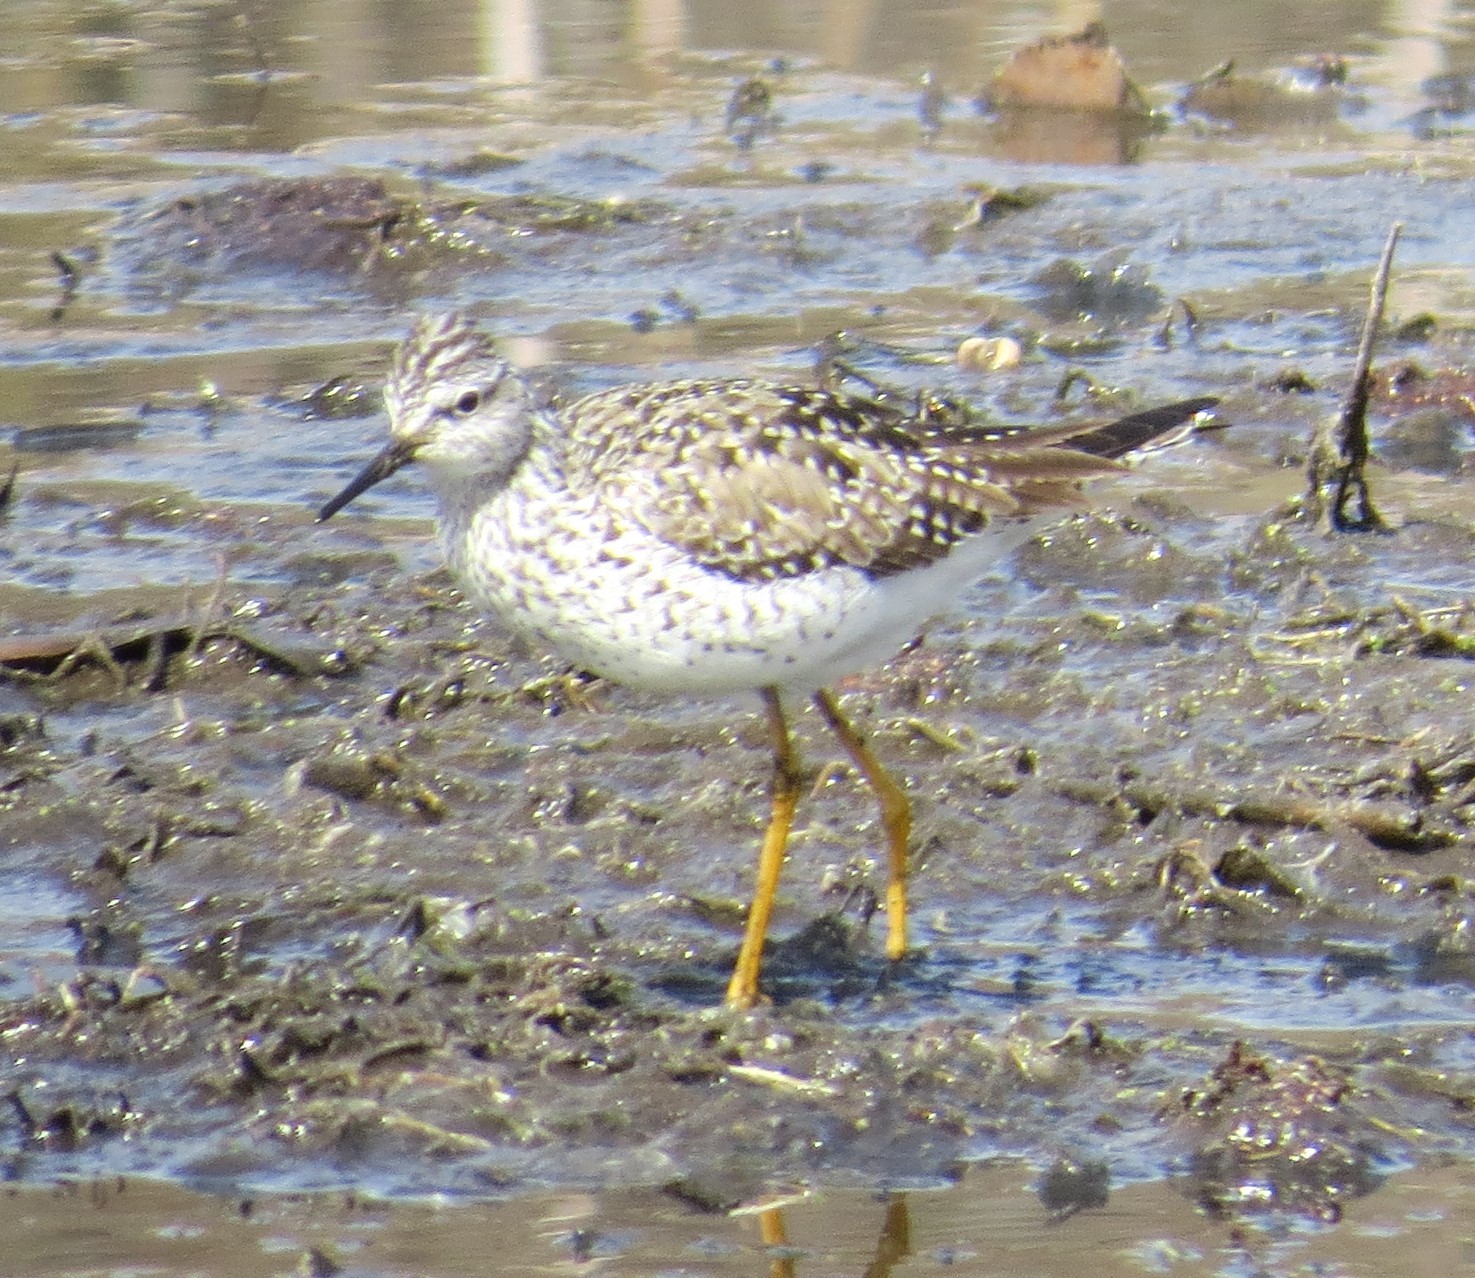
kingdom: Animalia
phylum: Chordata
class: Aves
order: Charadriiformes
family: Scolopacidae
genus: Tringa
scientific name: Tringa flavipes
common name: Lesser yellowlegs
